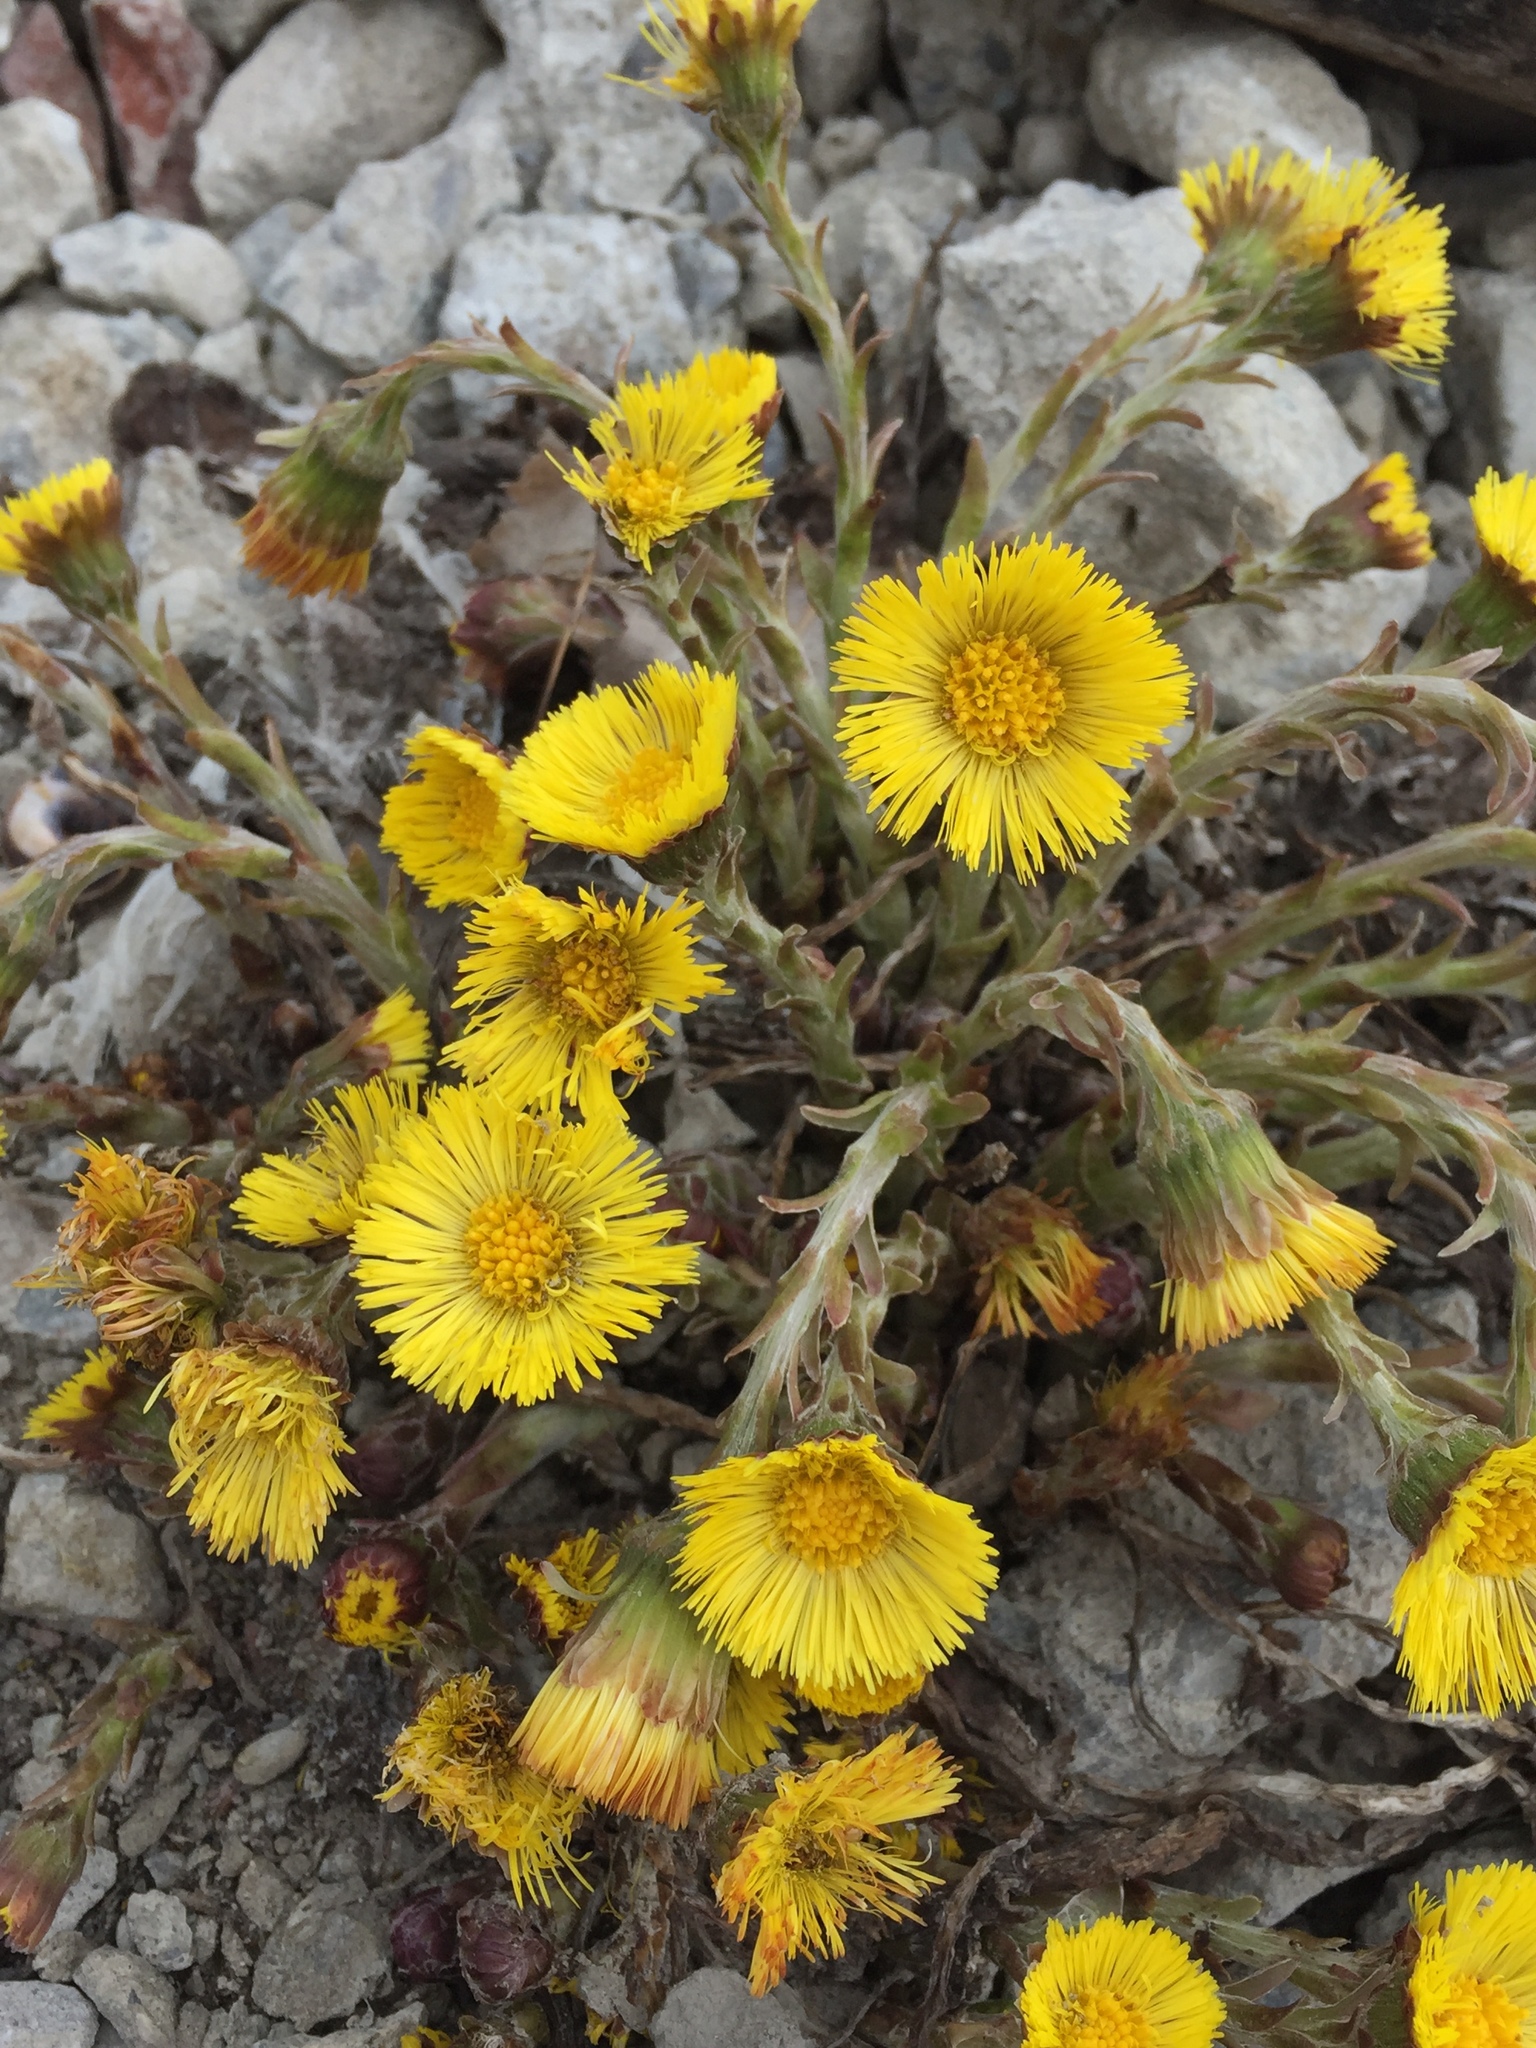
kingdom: Plantae
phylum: Tracheophyta
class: Magnoliopsida
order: Asterales
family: Asteraceae
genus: Tussilago
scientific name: Tussilago farfara
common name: Coltsfoot
